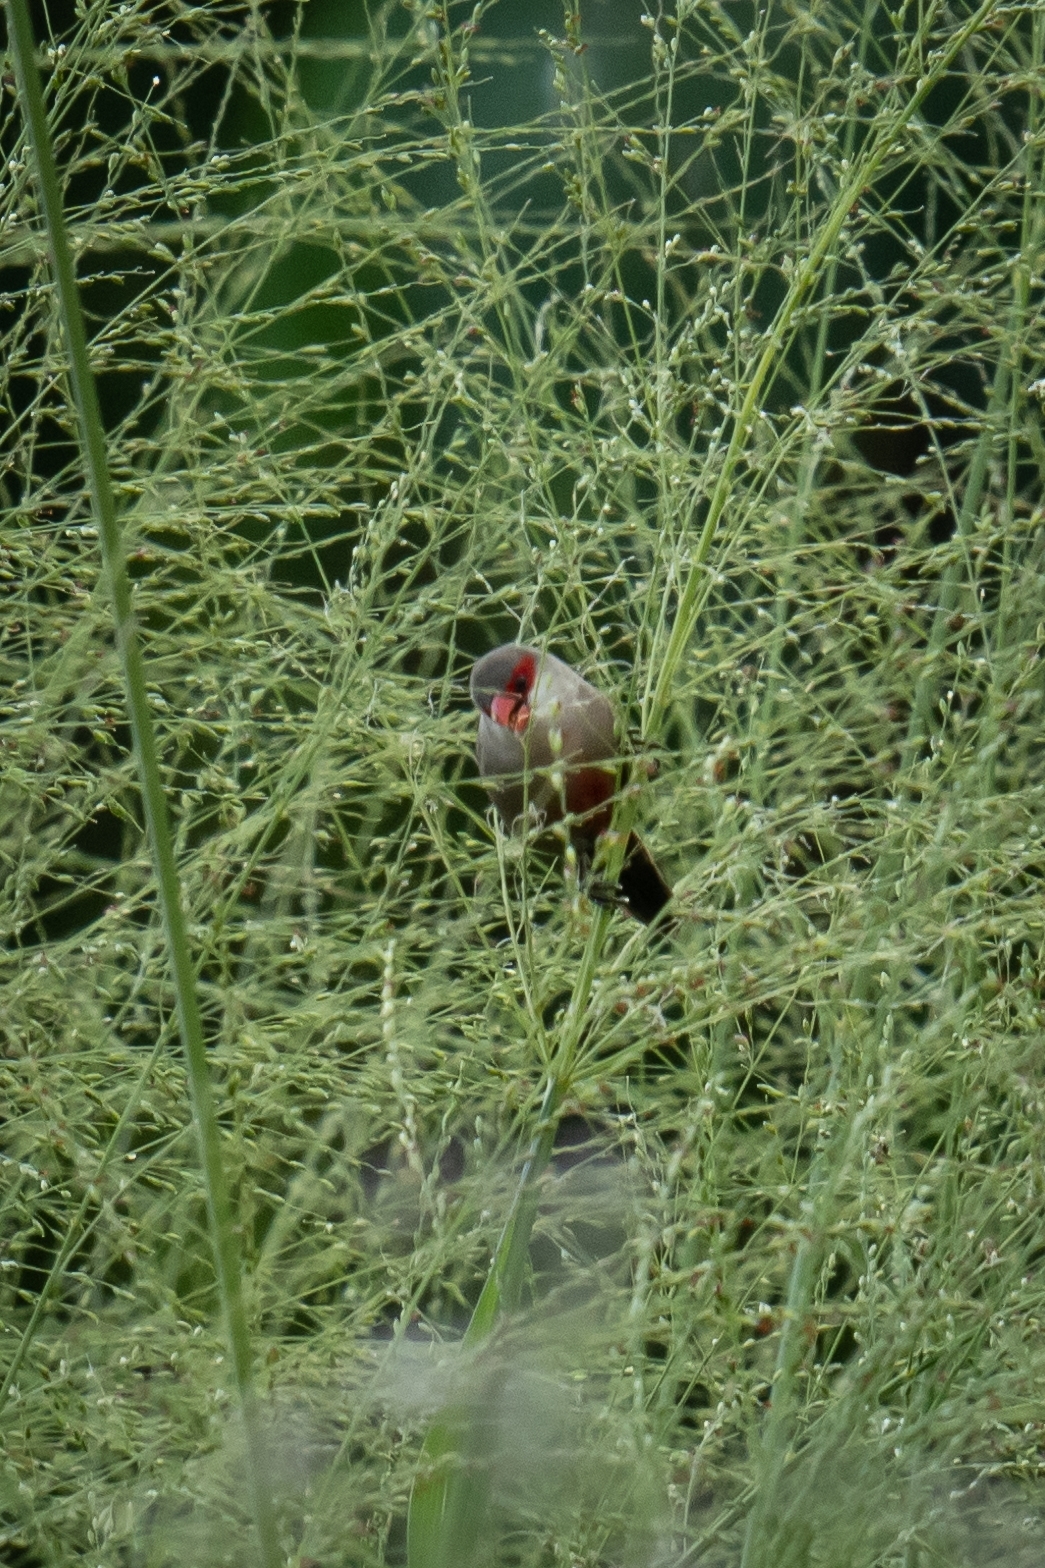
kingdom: Animalia
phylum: Chordata
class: Aves
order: Passeriformes
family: Estrildidae
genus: Estrilda
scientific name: Estrilda astrild
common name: Common waxbill
